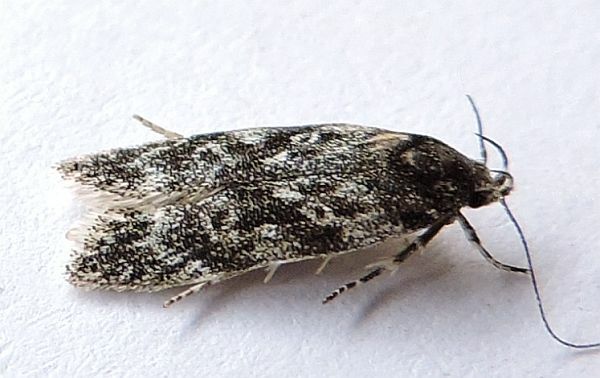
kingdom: Animalia
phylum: Arthropoda
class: Insecta
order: Lepidoptera
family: Gelechiidae
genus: Gelechia
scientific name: Gelechia lynceella
